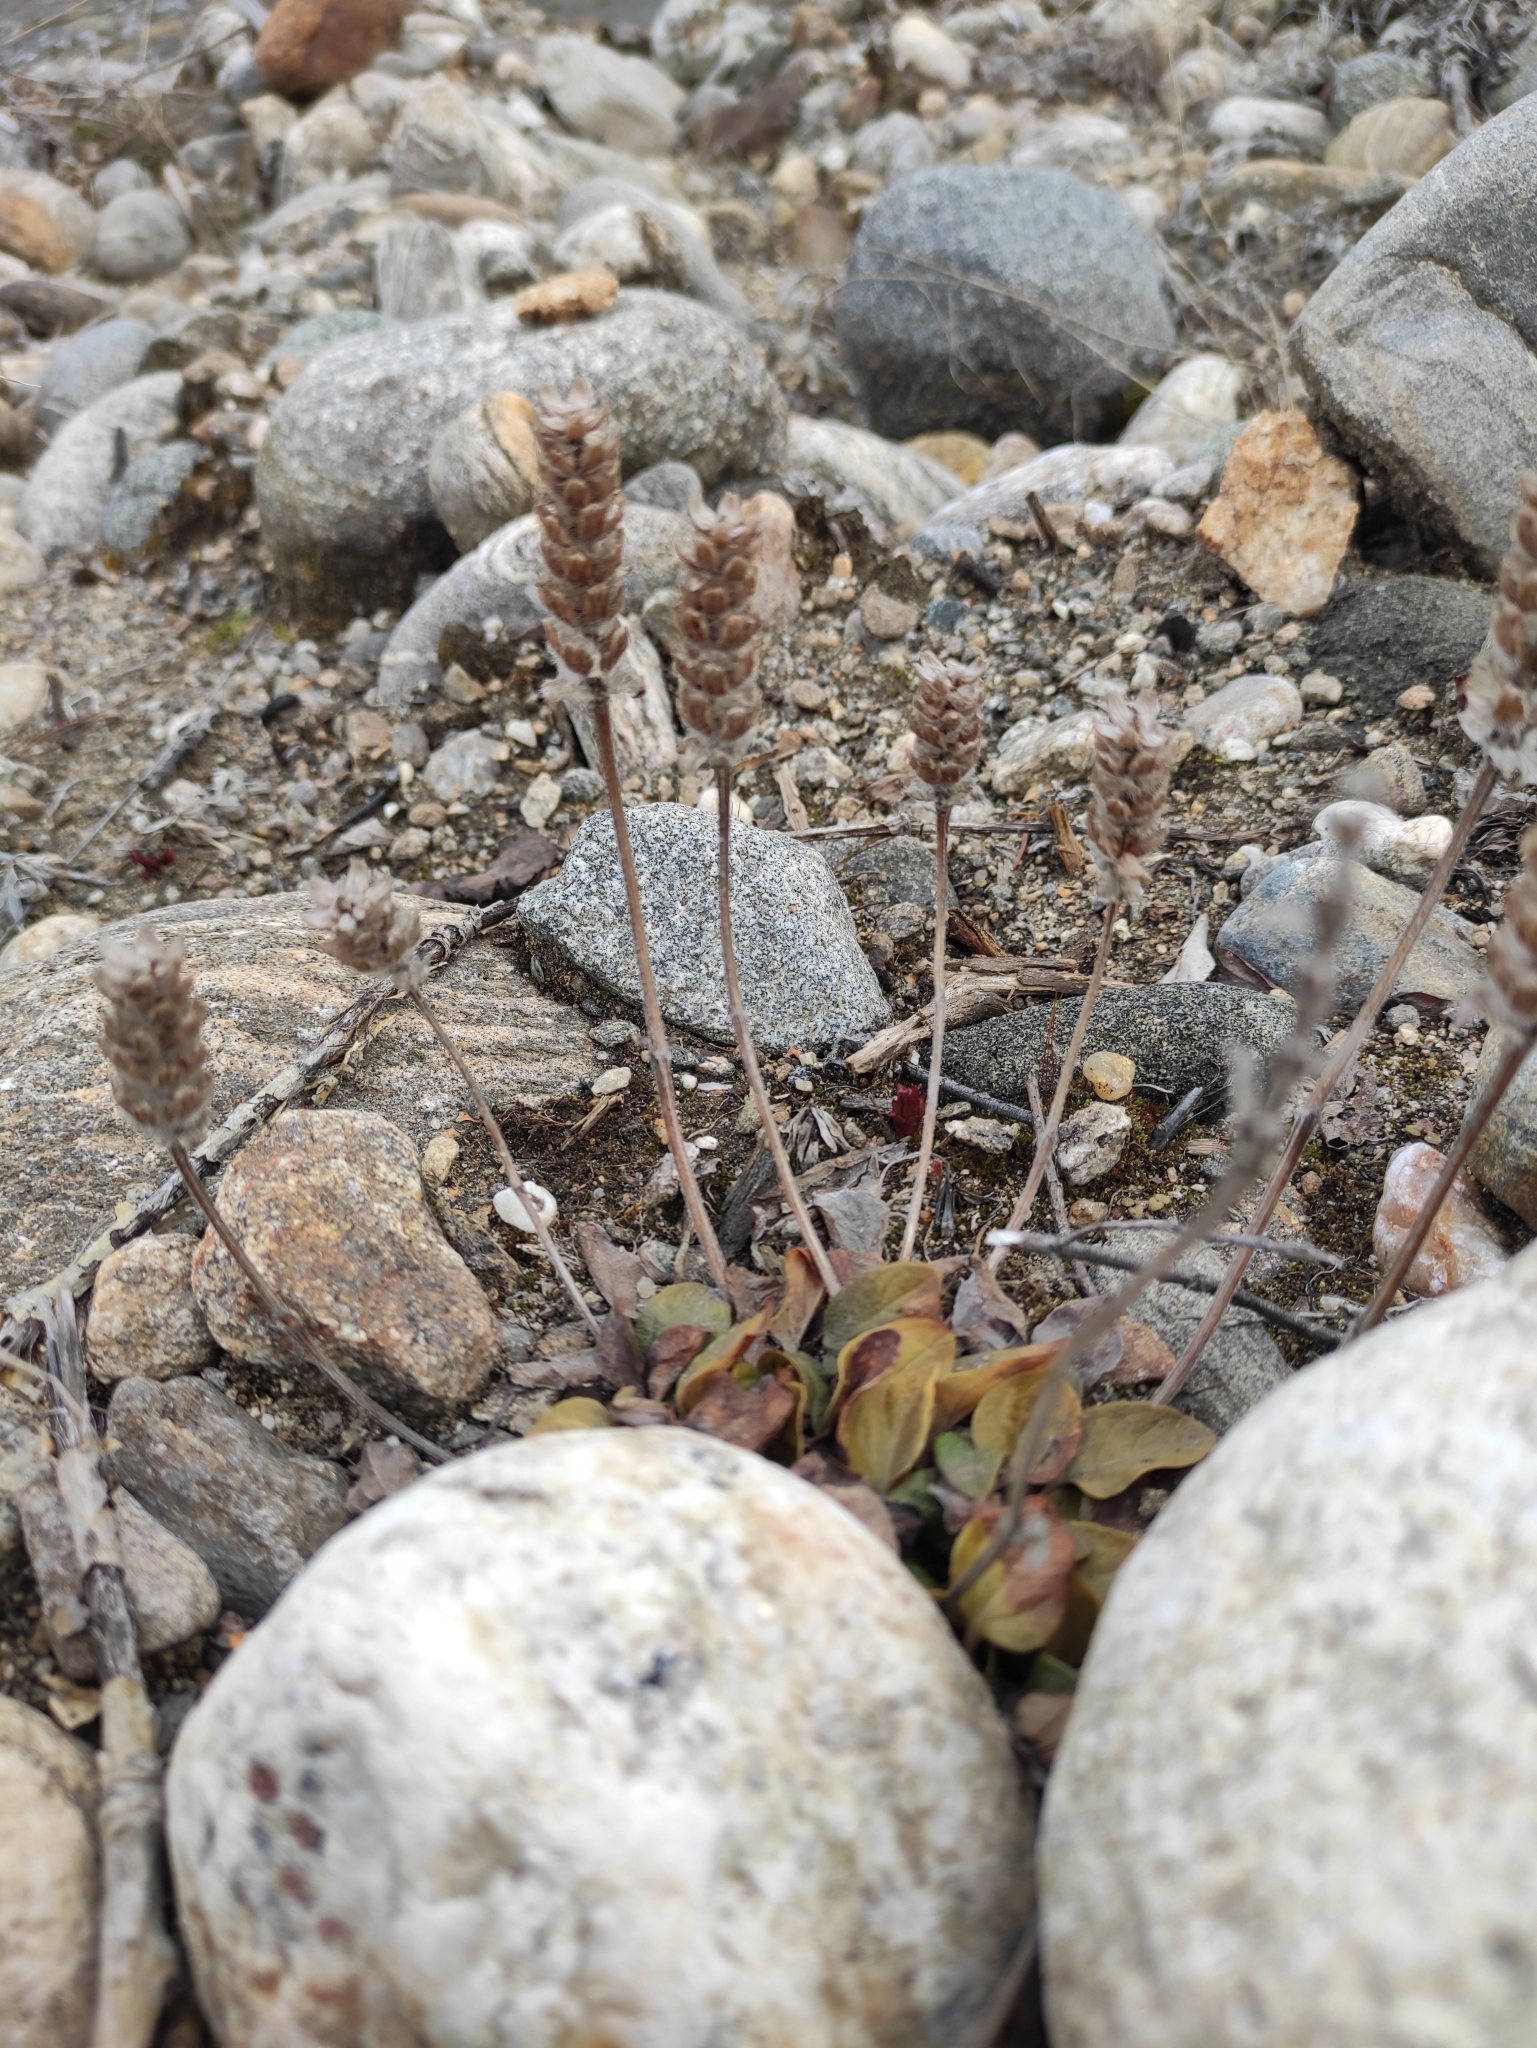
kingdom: Plantae
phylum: Tracheophyta
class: Magnoliopsida
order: Lamiales
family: Lamiaceae
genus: Prunella
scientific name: Prunella vulgaris
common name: Heal-all
